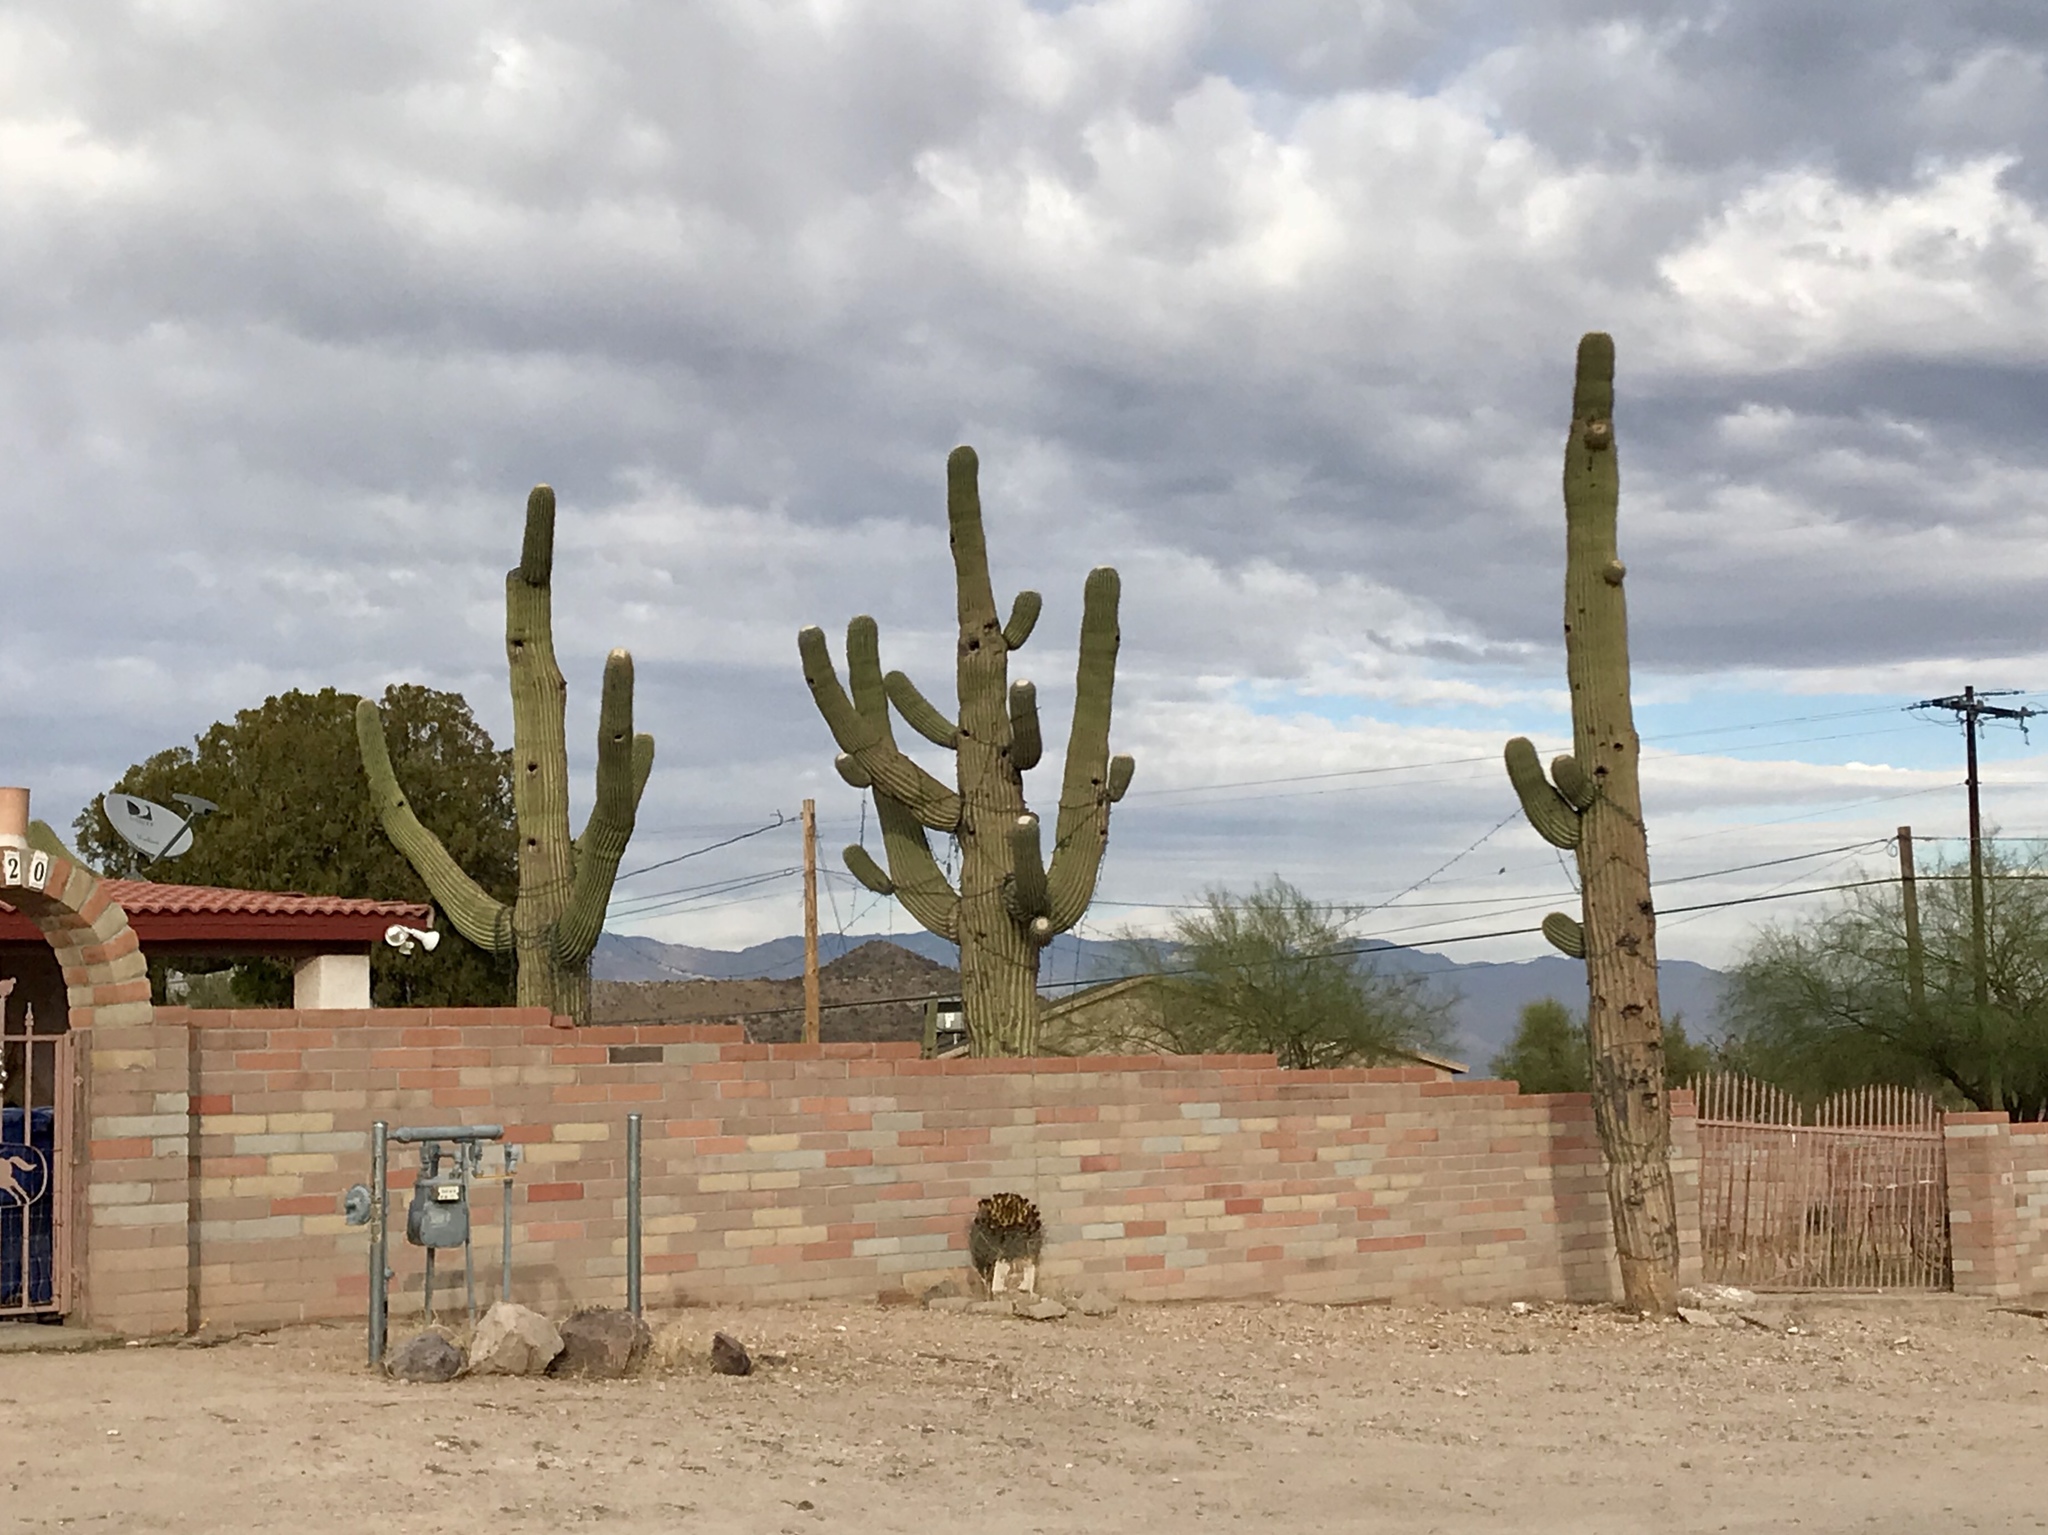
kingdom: Plantae
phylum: Tracheophyta
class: Magnoliopsida
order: Caryophyllales
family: Cactaceae
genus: Carnegiea
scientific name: Carnegiea gigantea
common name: Saguaro
